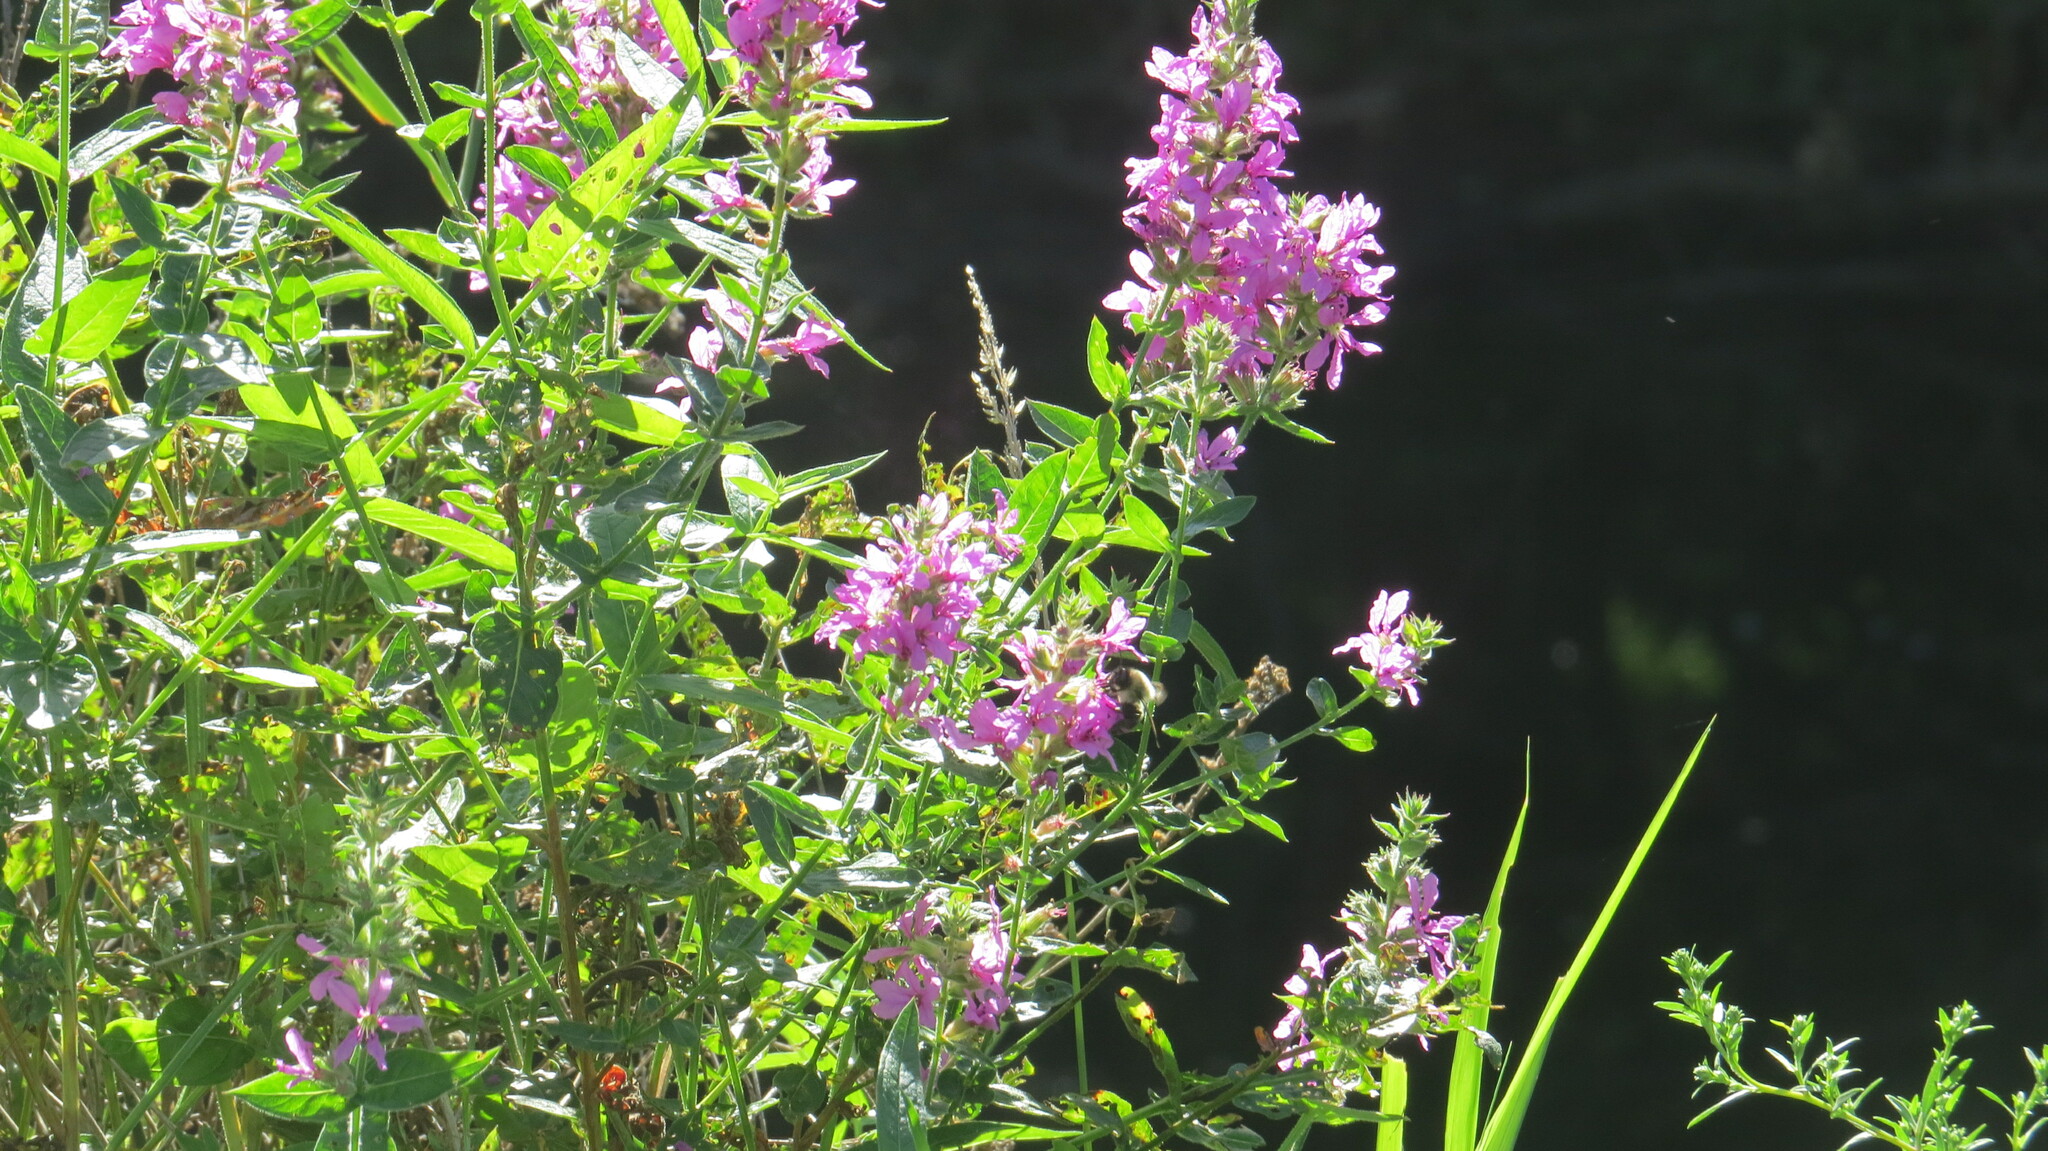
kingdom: Plantae
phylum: Tracheophyta
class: Magnoliopsida
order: Myrtales
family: Lythraceae
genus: Lythrum
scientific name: Lythrum salicaria
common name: Purple loosestrife
